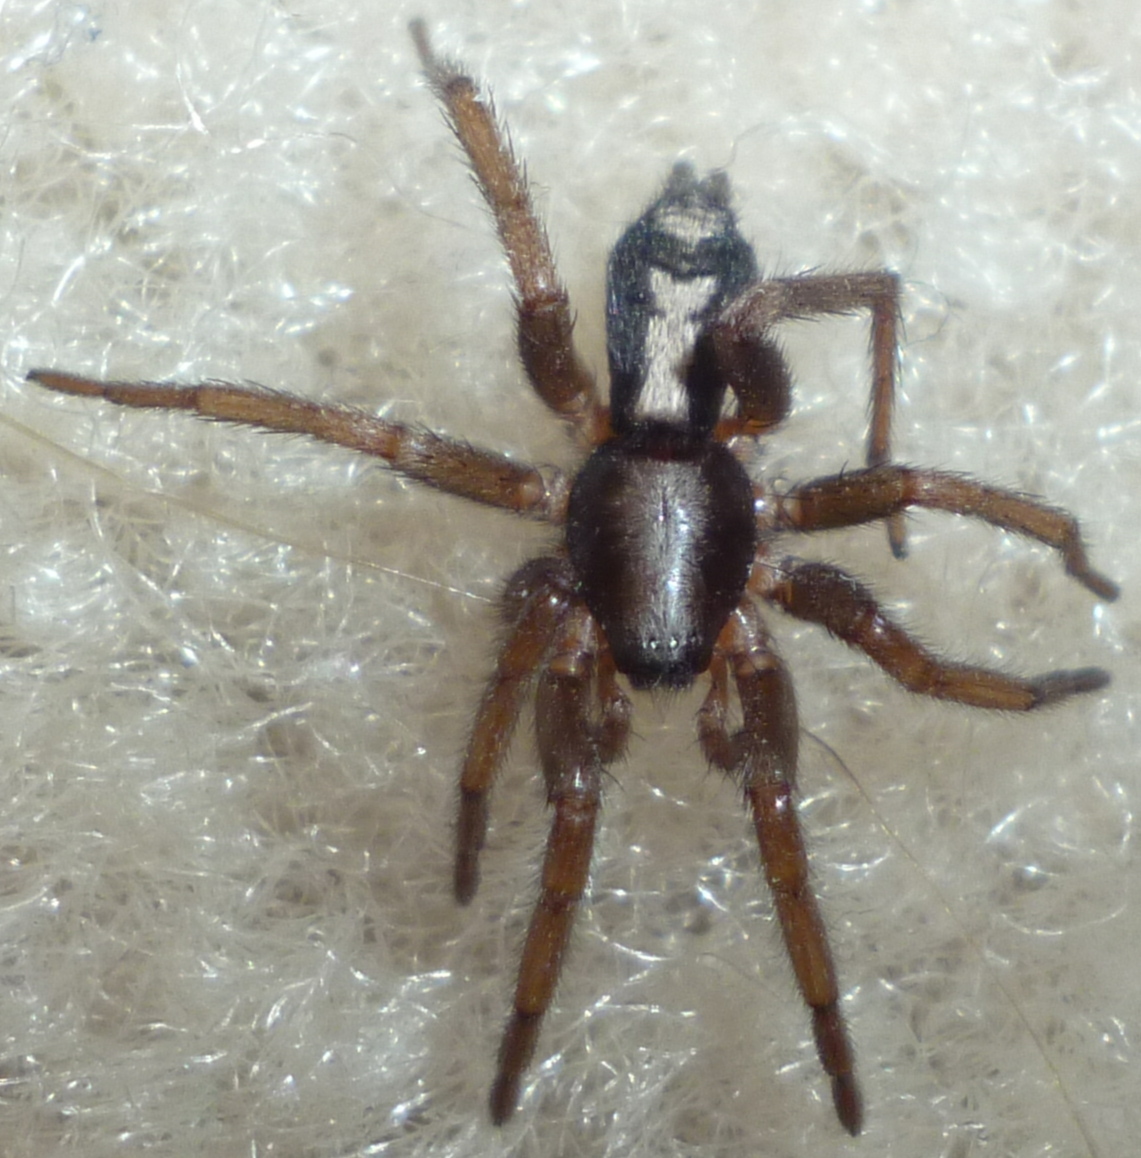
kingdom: Animalia
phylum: Arthropoda
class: Arachnida
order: Araneae
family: Gnaphosidae
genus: Herpyllus
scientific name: Herpyllus ecclesiasticus
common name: Eastern parson spider
